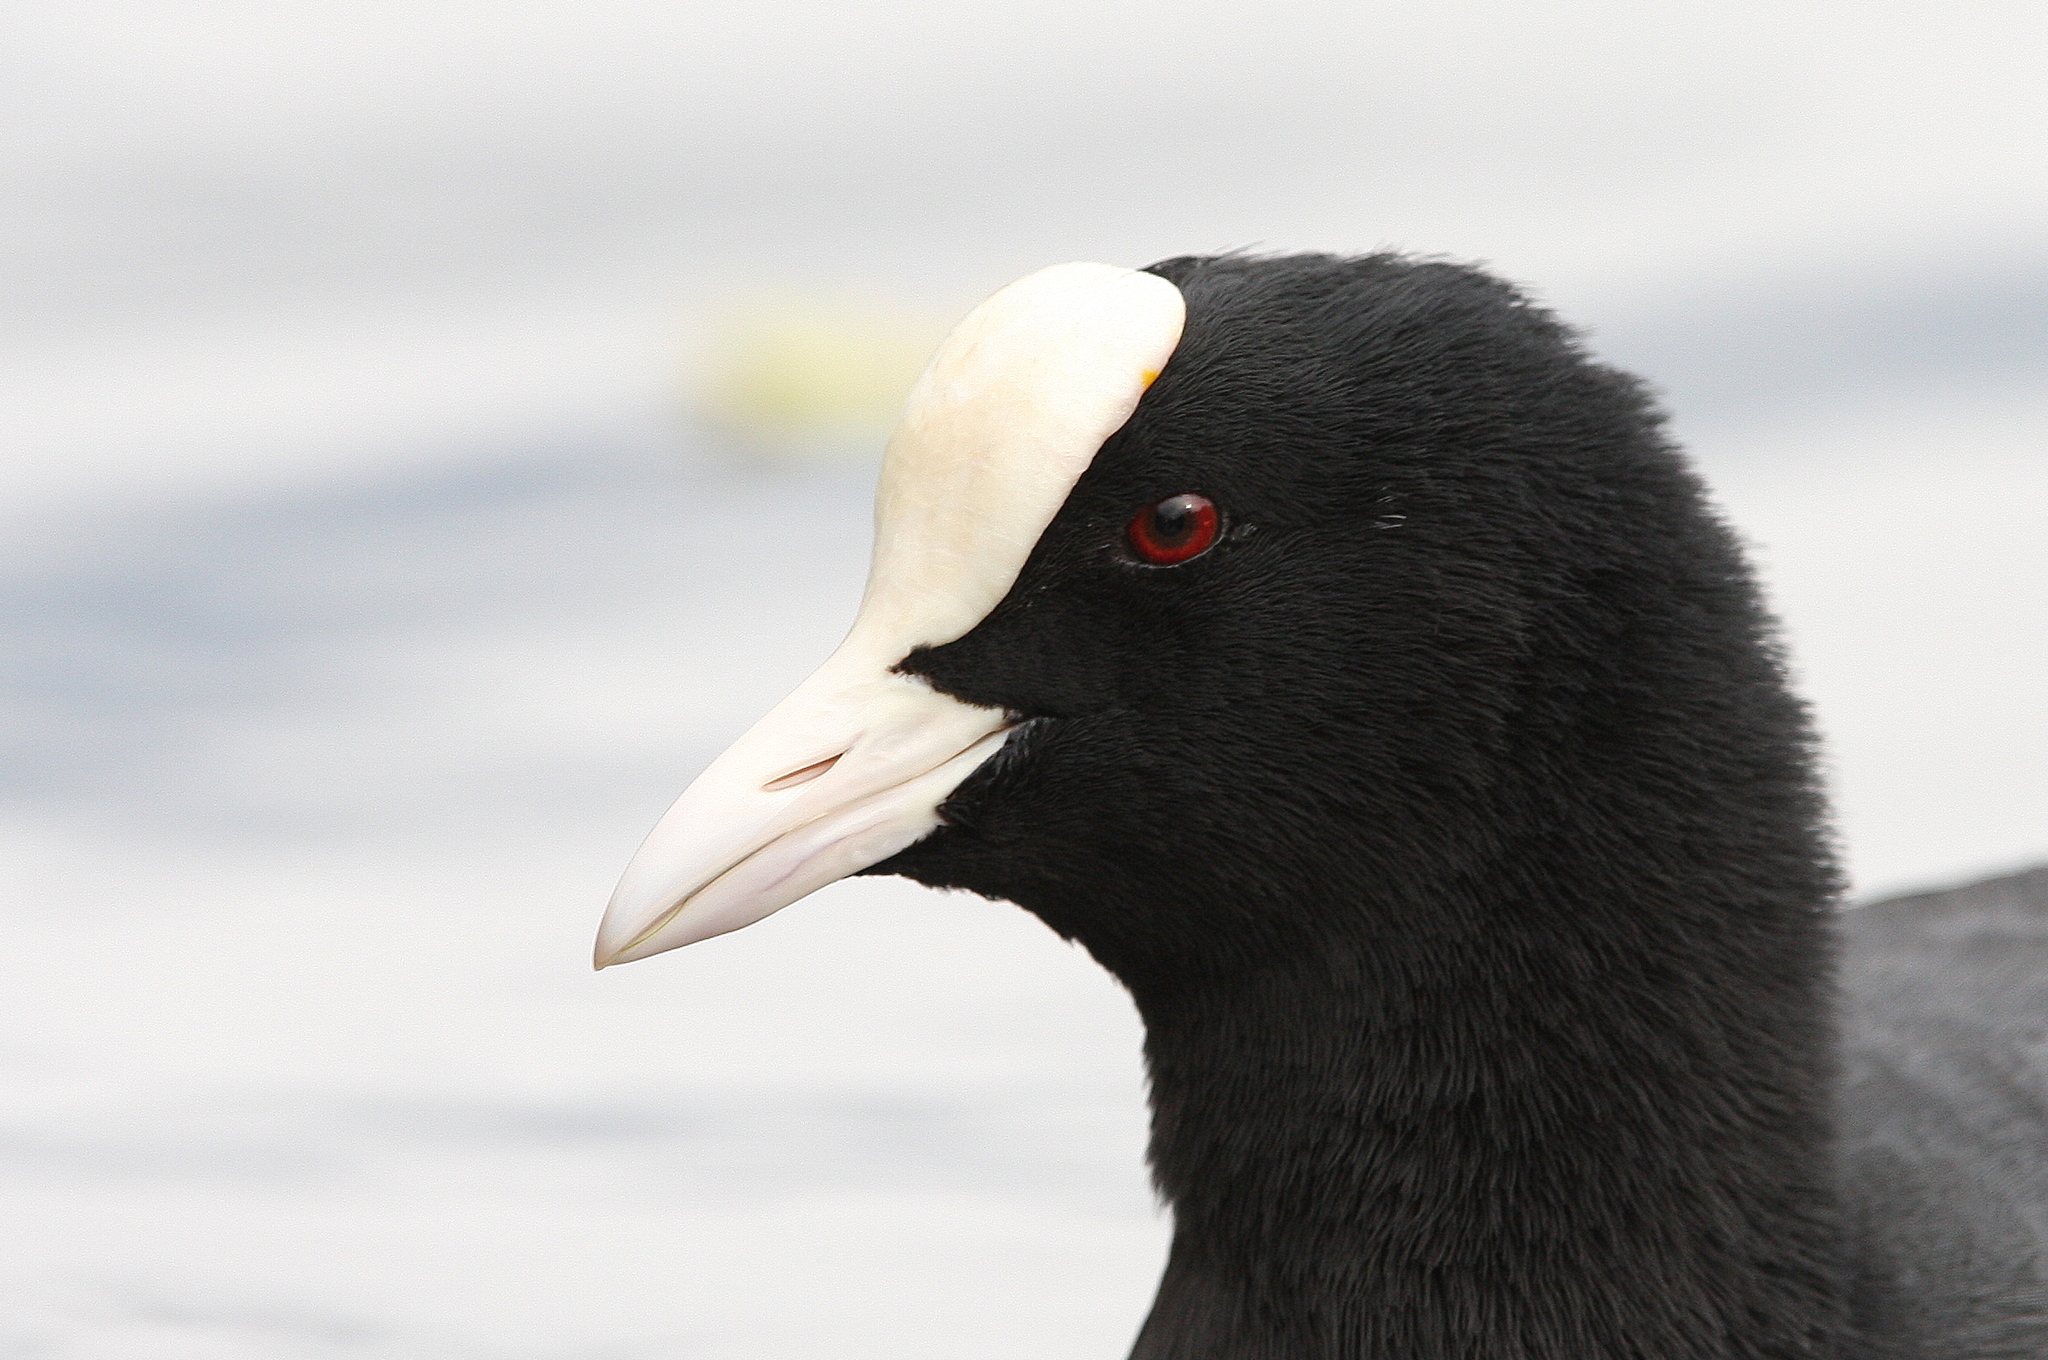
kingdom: Animalia
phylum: Chordata
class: Aves
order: Gruiformes
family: Rallidae
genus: Fulica
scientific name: Fulica atra
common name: Eurasian coot
